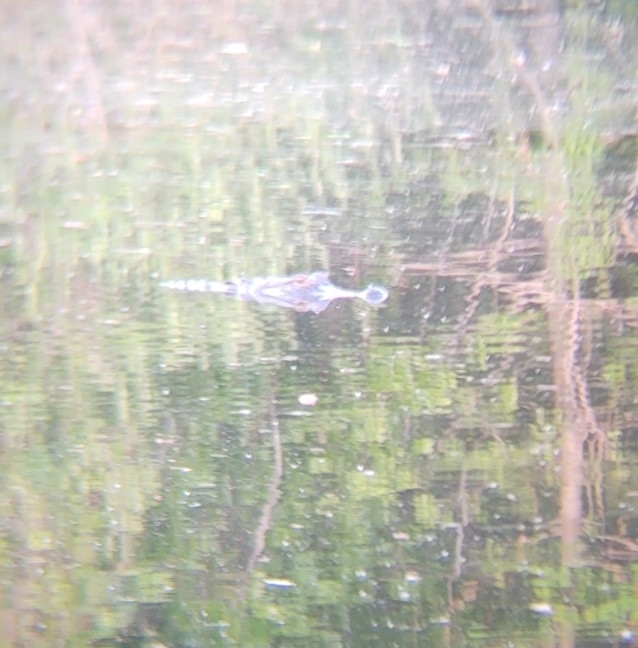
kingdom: Animalia
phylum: Chordata
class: Crocodylia
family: Alligatoridae
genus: Alligator
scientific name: Alligator mississippiensis
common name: American alligator
